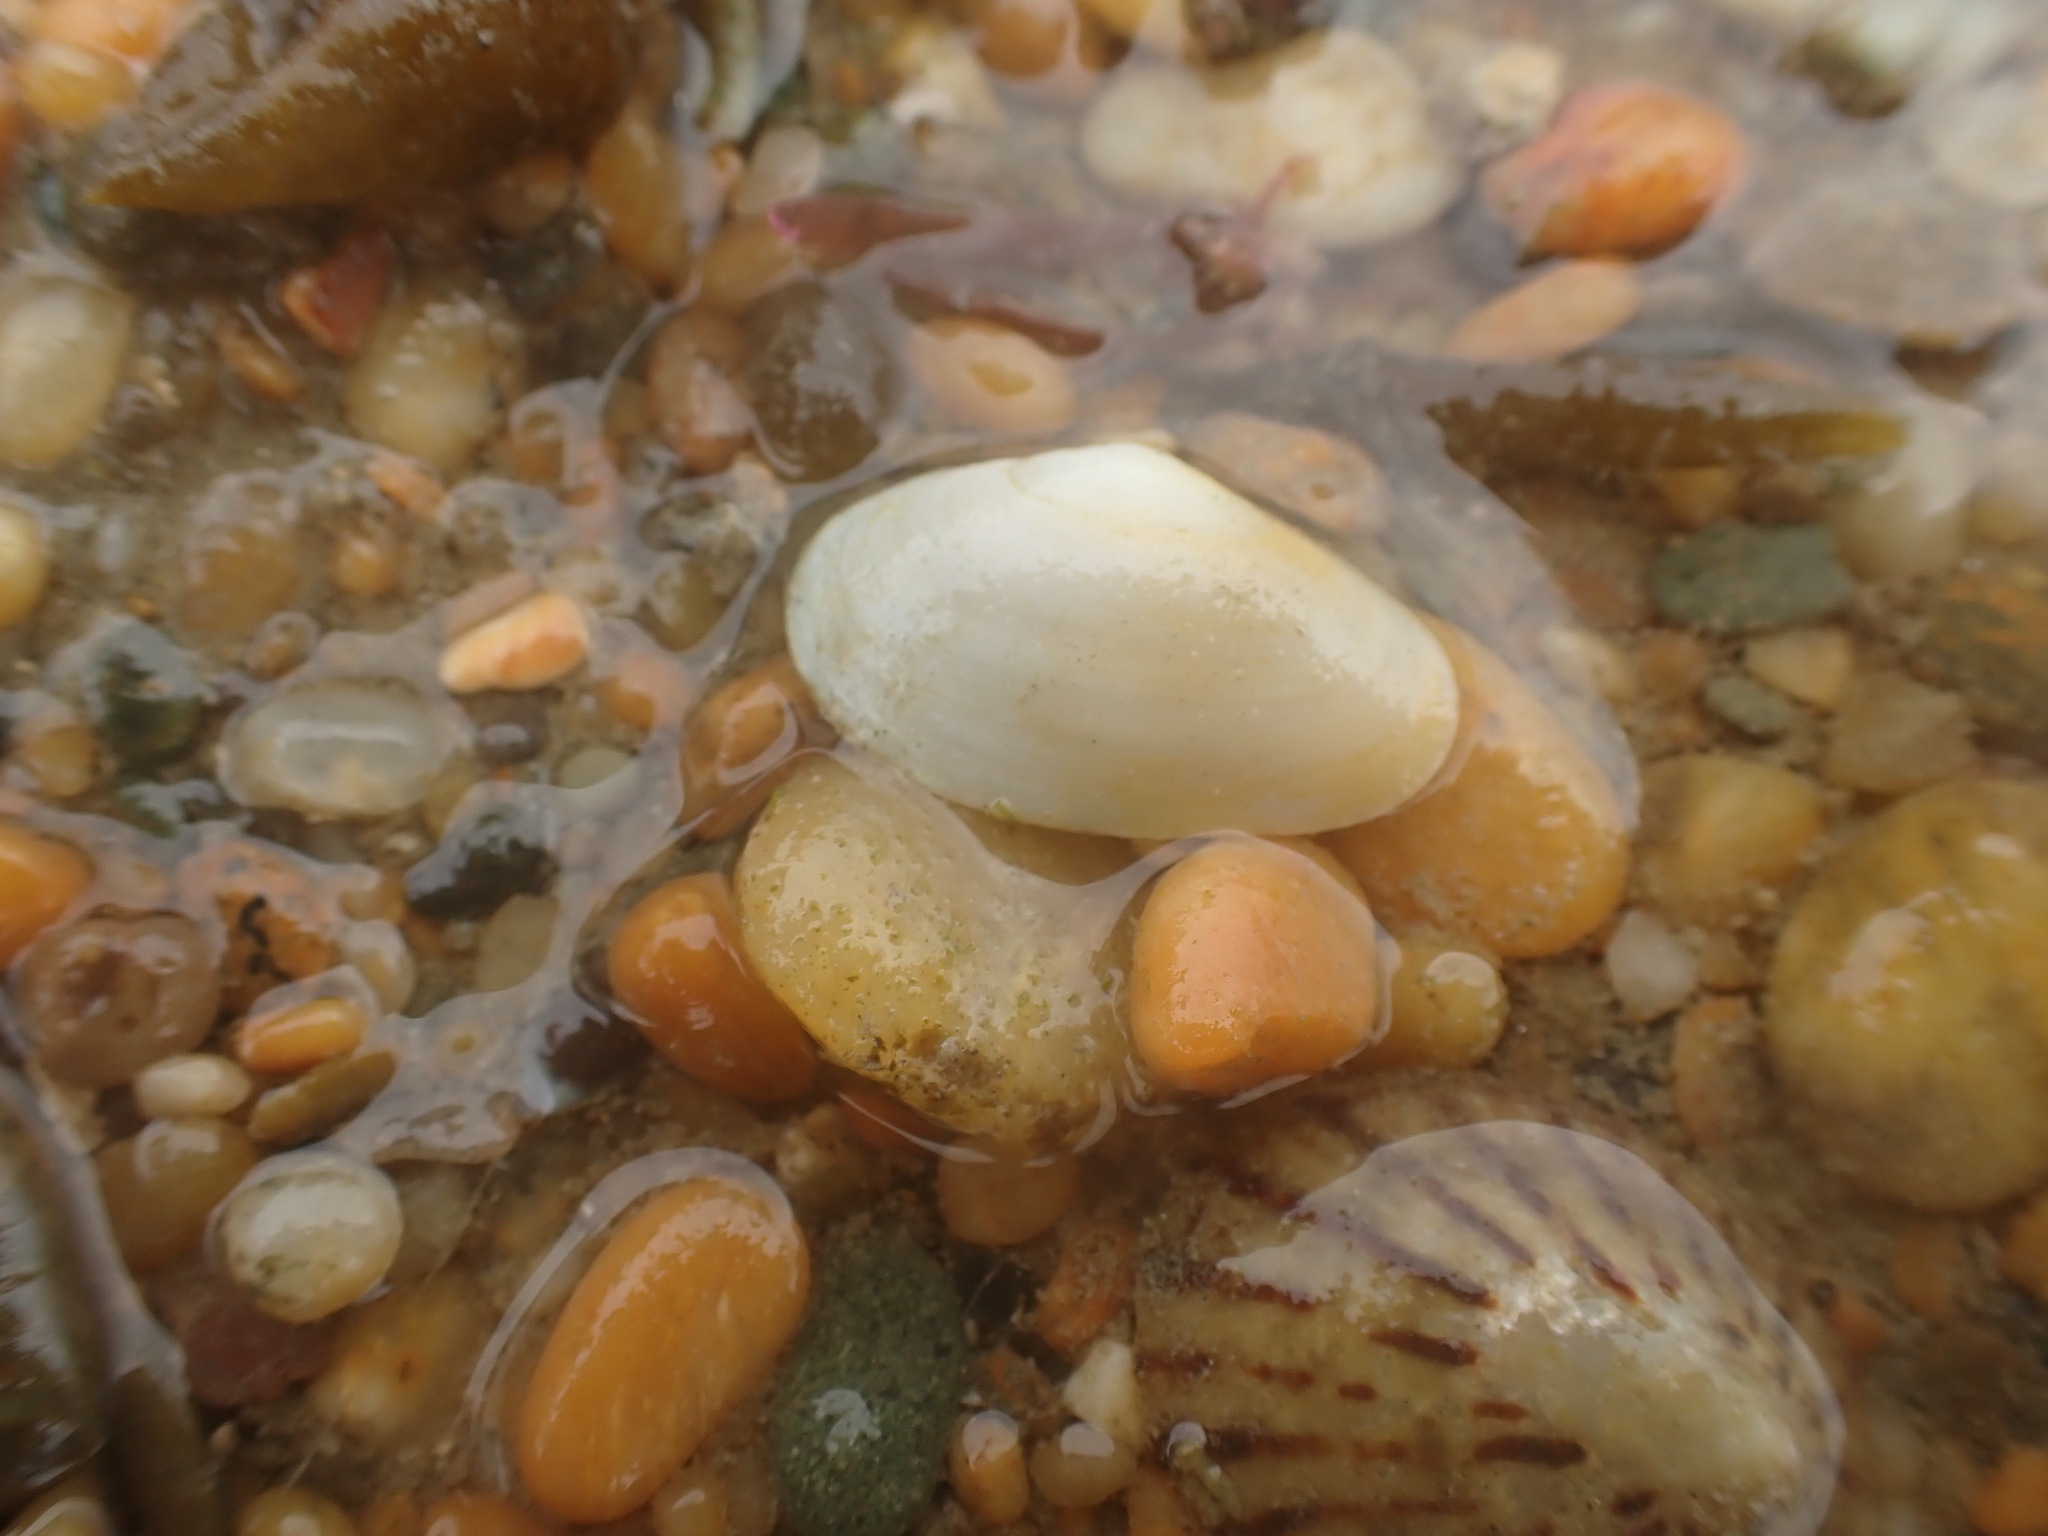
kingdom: Animalia
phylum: Mollusca
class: Bivalvia
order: Venerida
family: Mesodesmatidae
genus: Paphies
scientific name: Paphies australis
